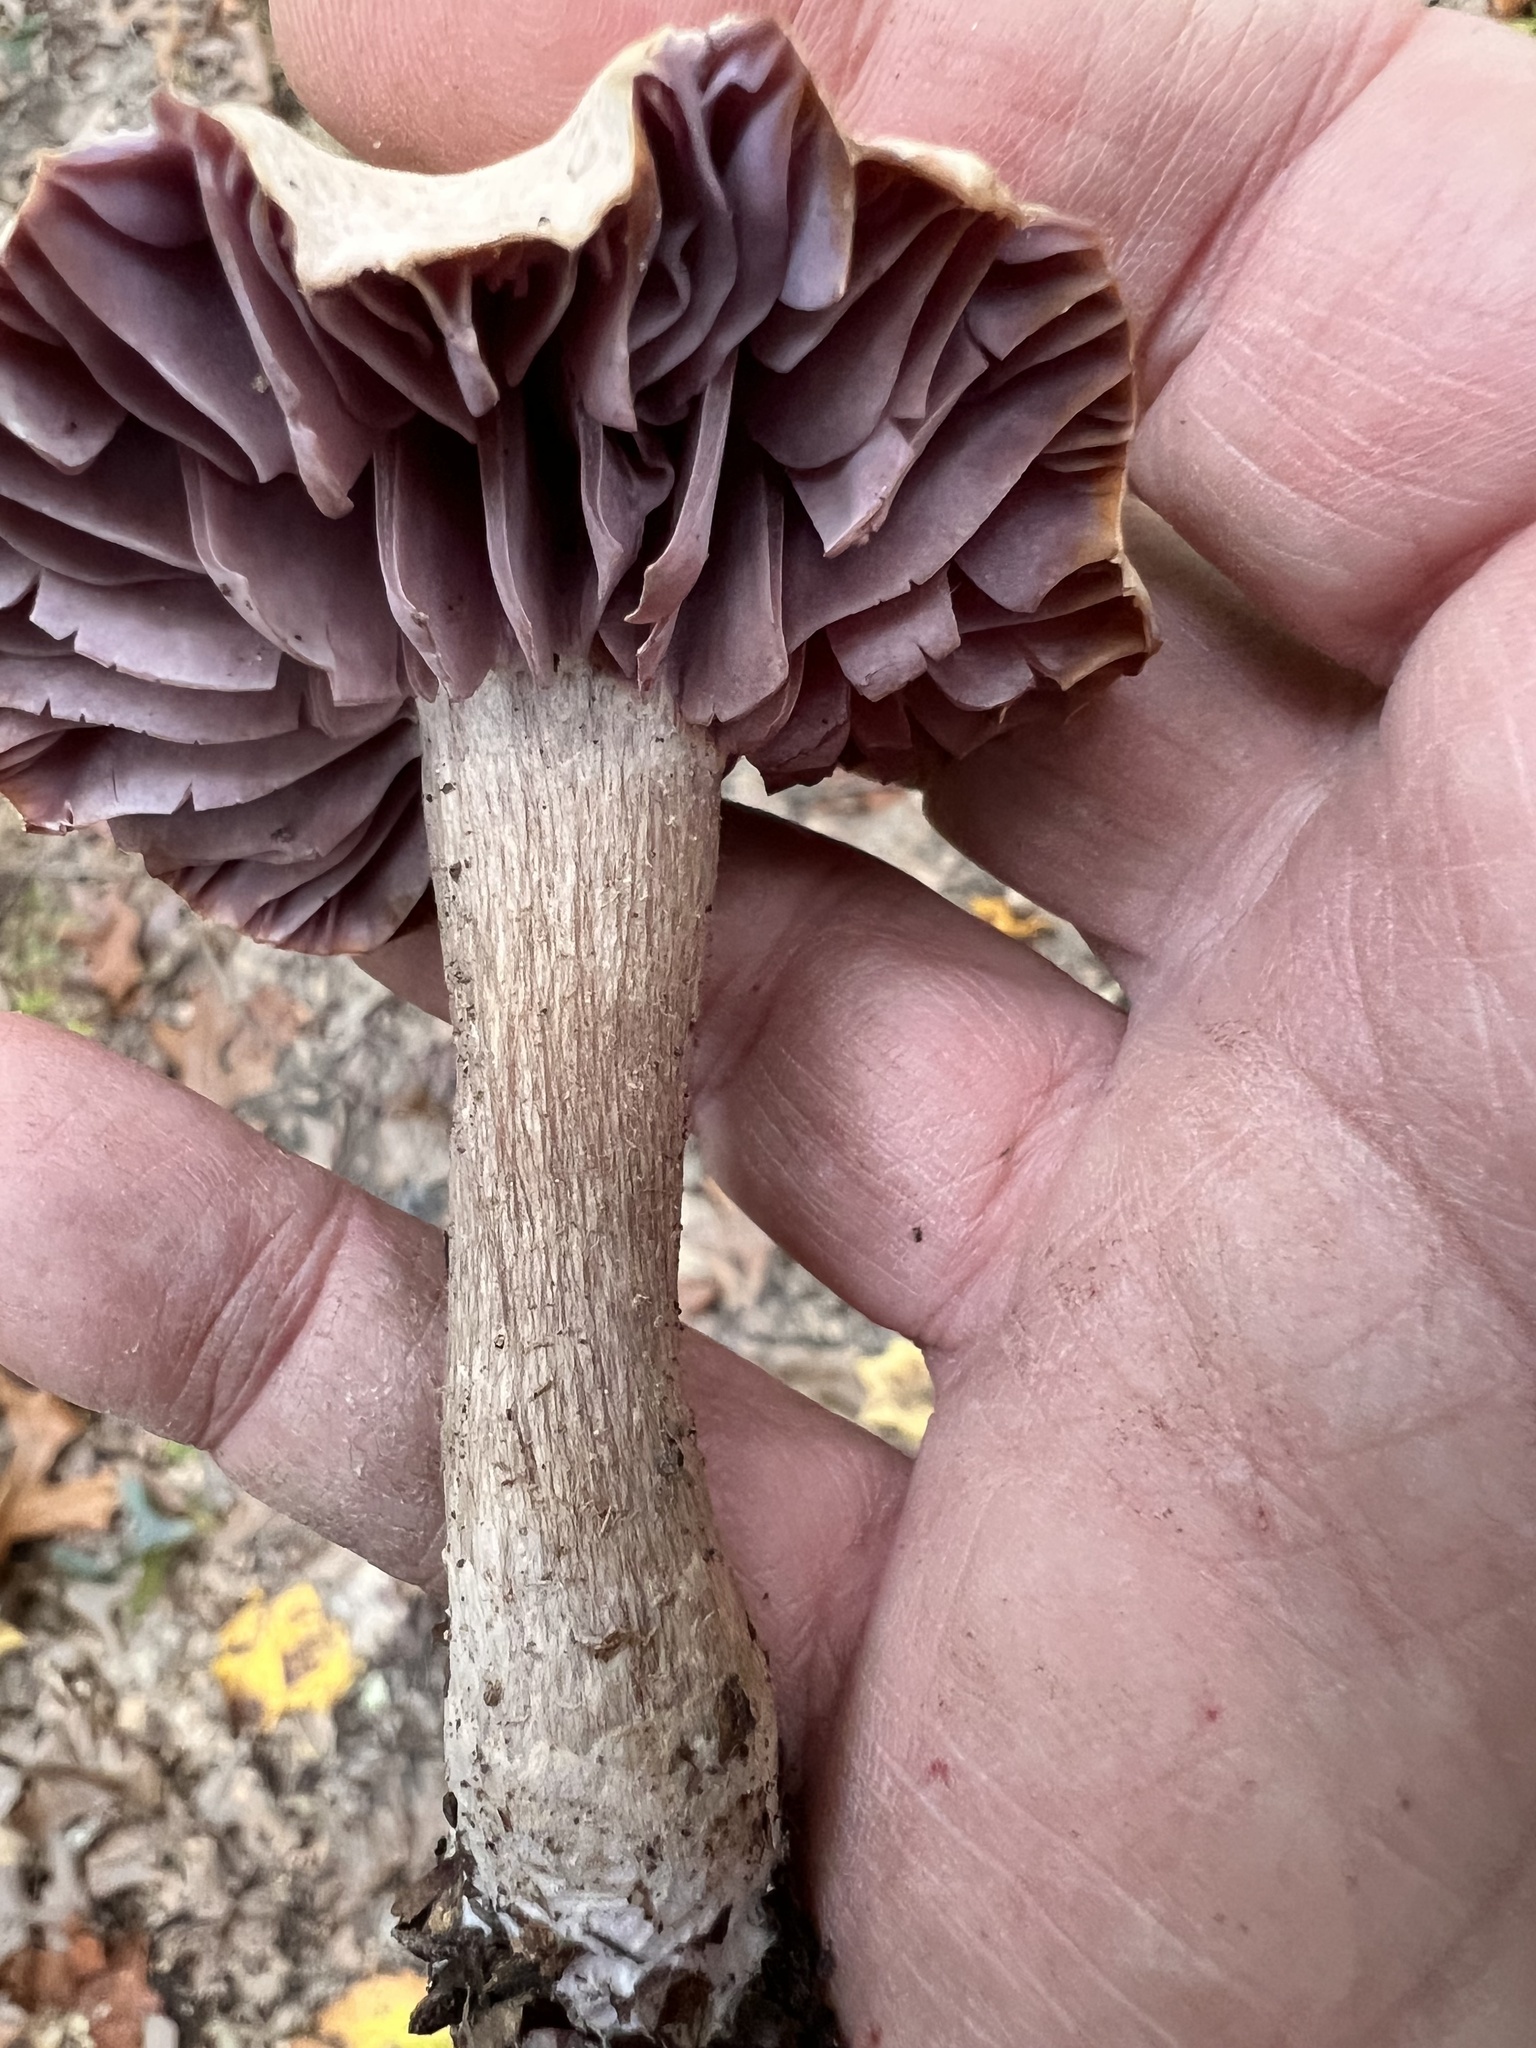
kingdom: Fungi
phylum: Basidiomycota
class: Agaricomycetes
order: Agaricales
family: Hydnangiaceae
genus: Laccaria
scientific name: Laccaria ochropurpurea
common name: Purple laccaria
